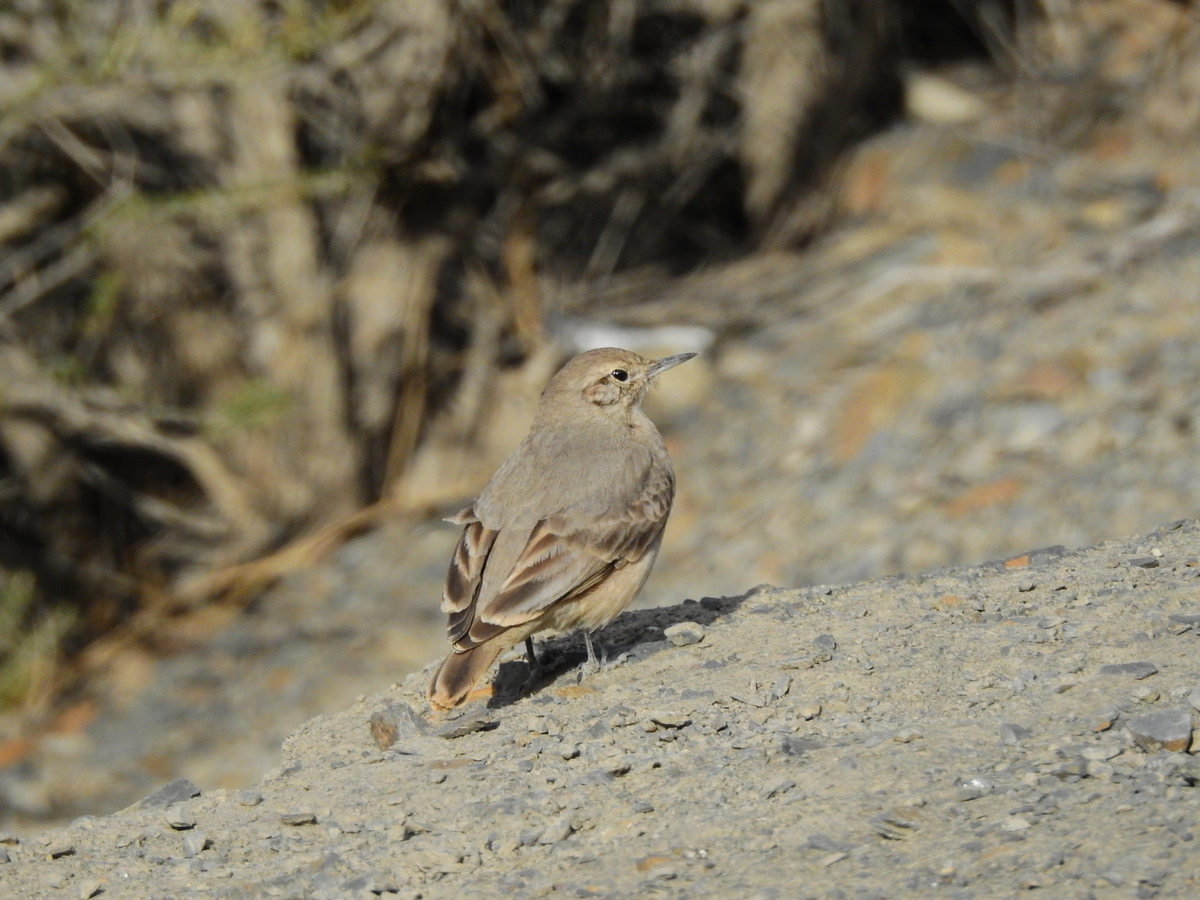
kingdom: Animalia
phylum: Chordata
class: Aves
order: Passeriformes
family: Furnariidae
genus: Geositta
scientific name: Geositta rufipennis
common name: Rufous-banded miner
